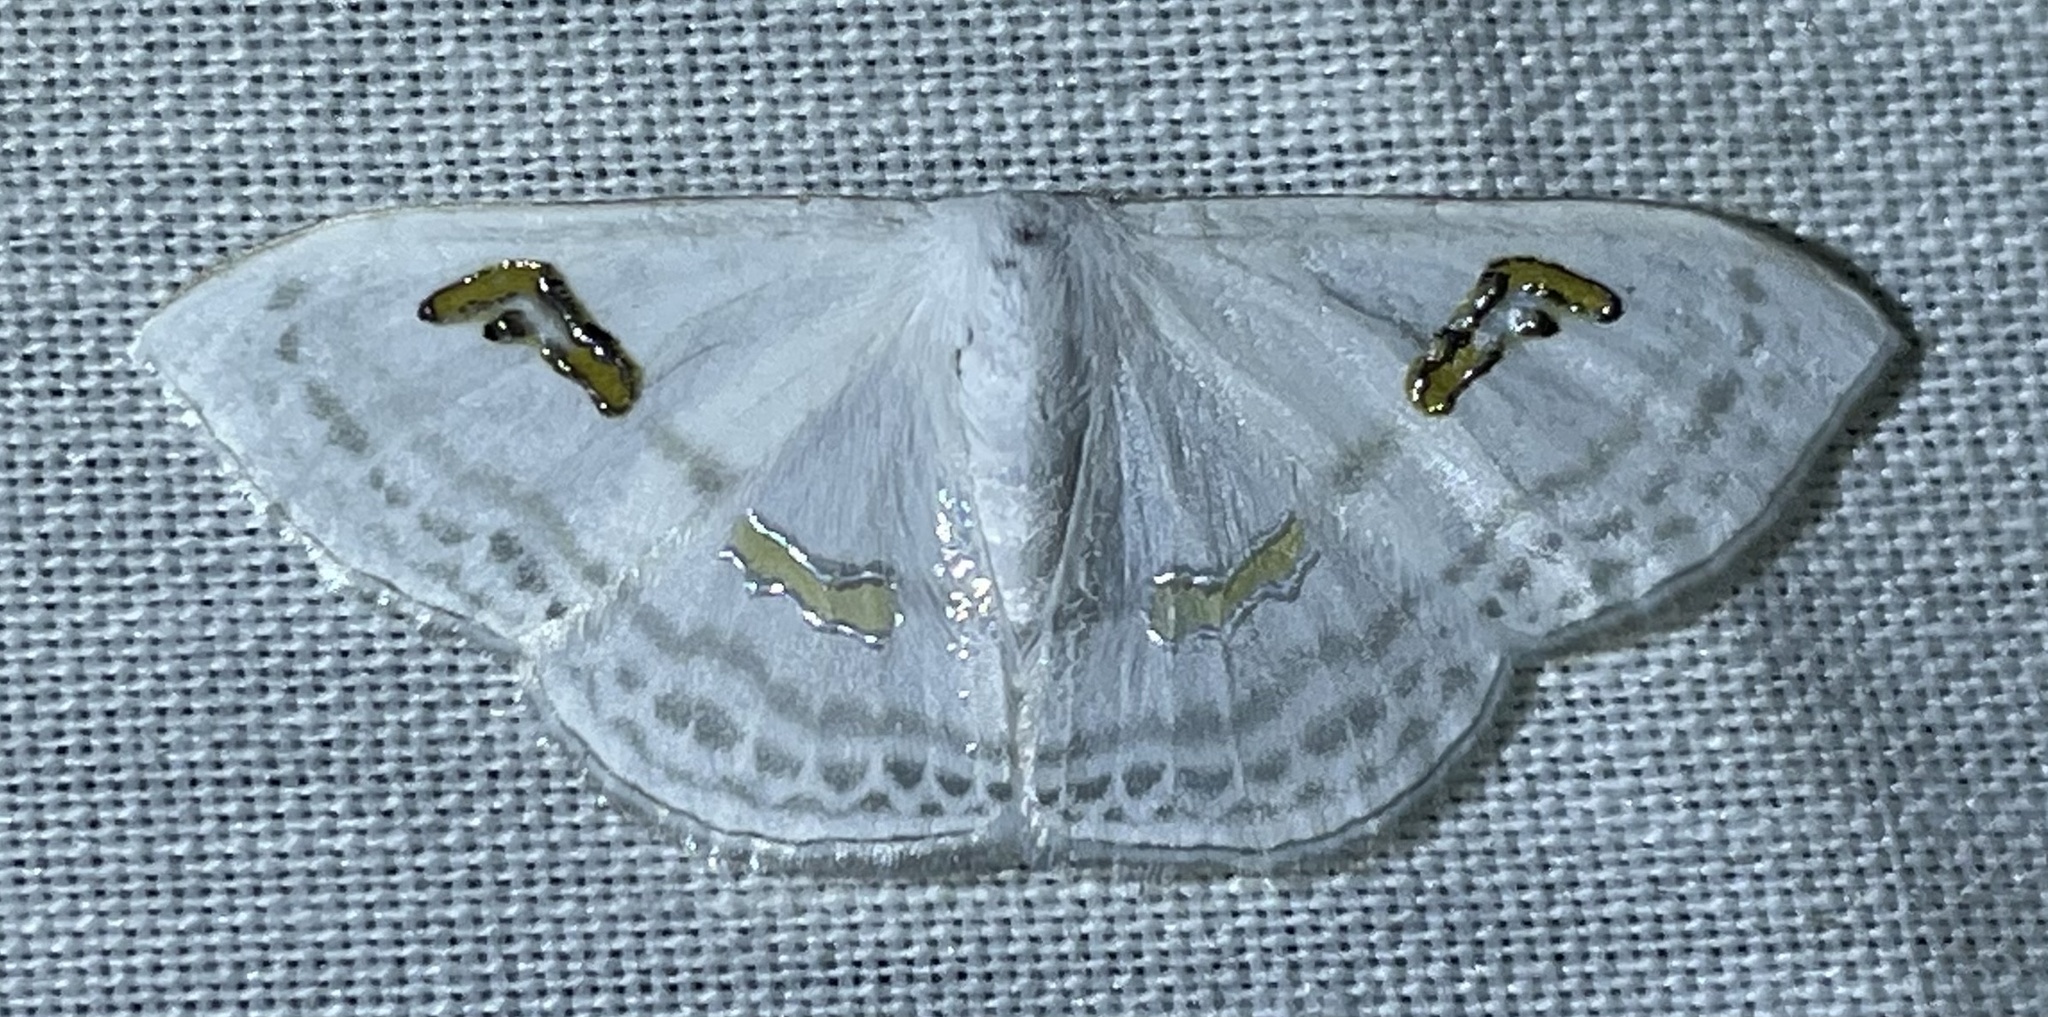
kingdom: Animalia
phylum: Arthropoda
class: Insecta
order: Lepidoptera
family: Geometridae
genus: Problepsis
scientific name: Problepsis digammata
